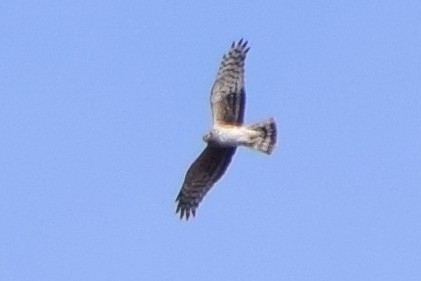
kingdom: Animalia
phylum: Chordata
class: Aves
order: Accipitriformes
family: Accipitridae
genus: Circus
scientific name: Circus cyaneus
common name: Hen harrier
